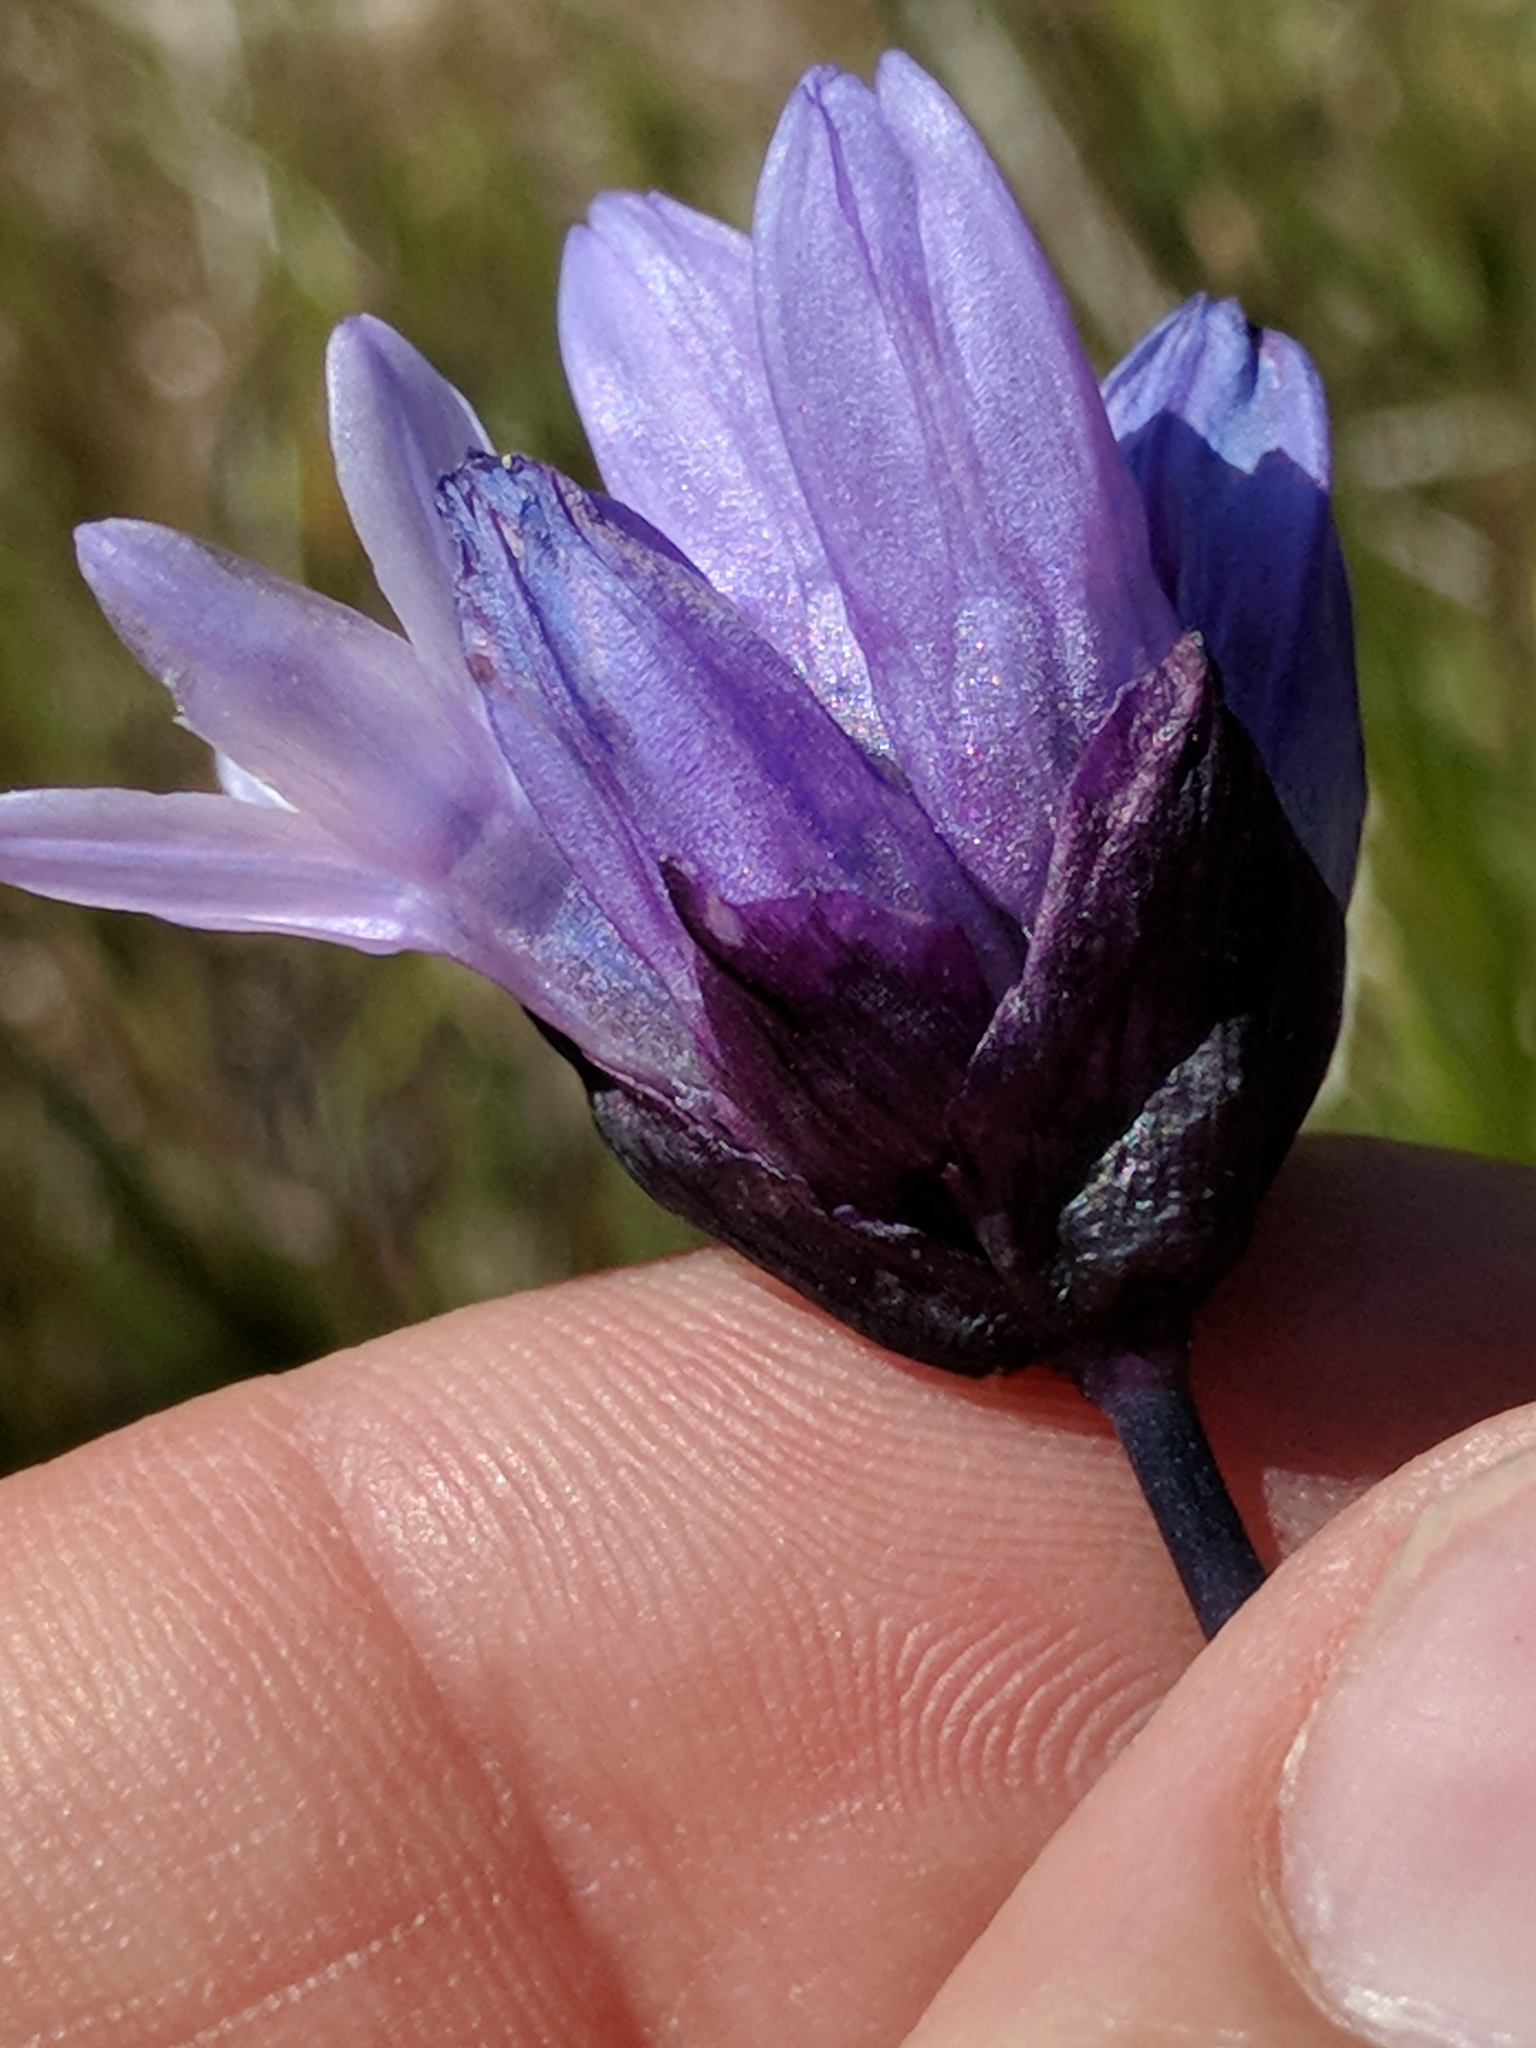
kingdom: Plantae
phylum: Tracheophyta
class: Liliopsida
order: Asparagales
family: Asparagaceae
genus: Dipterostemon
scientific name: Dipterostemon capitatus
